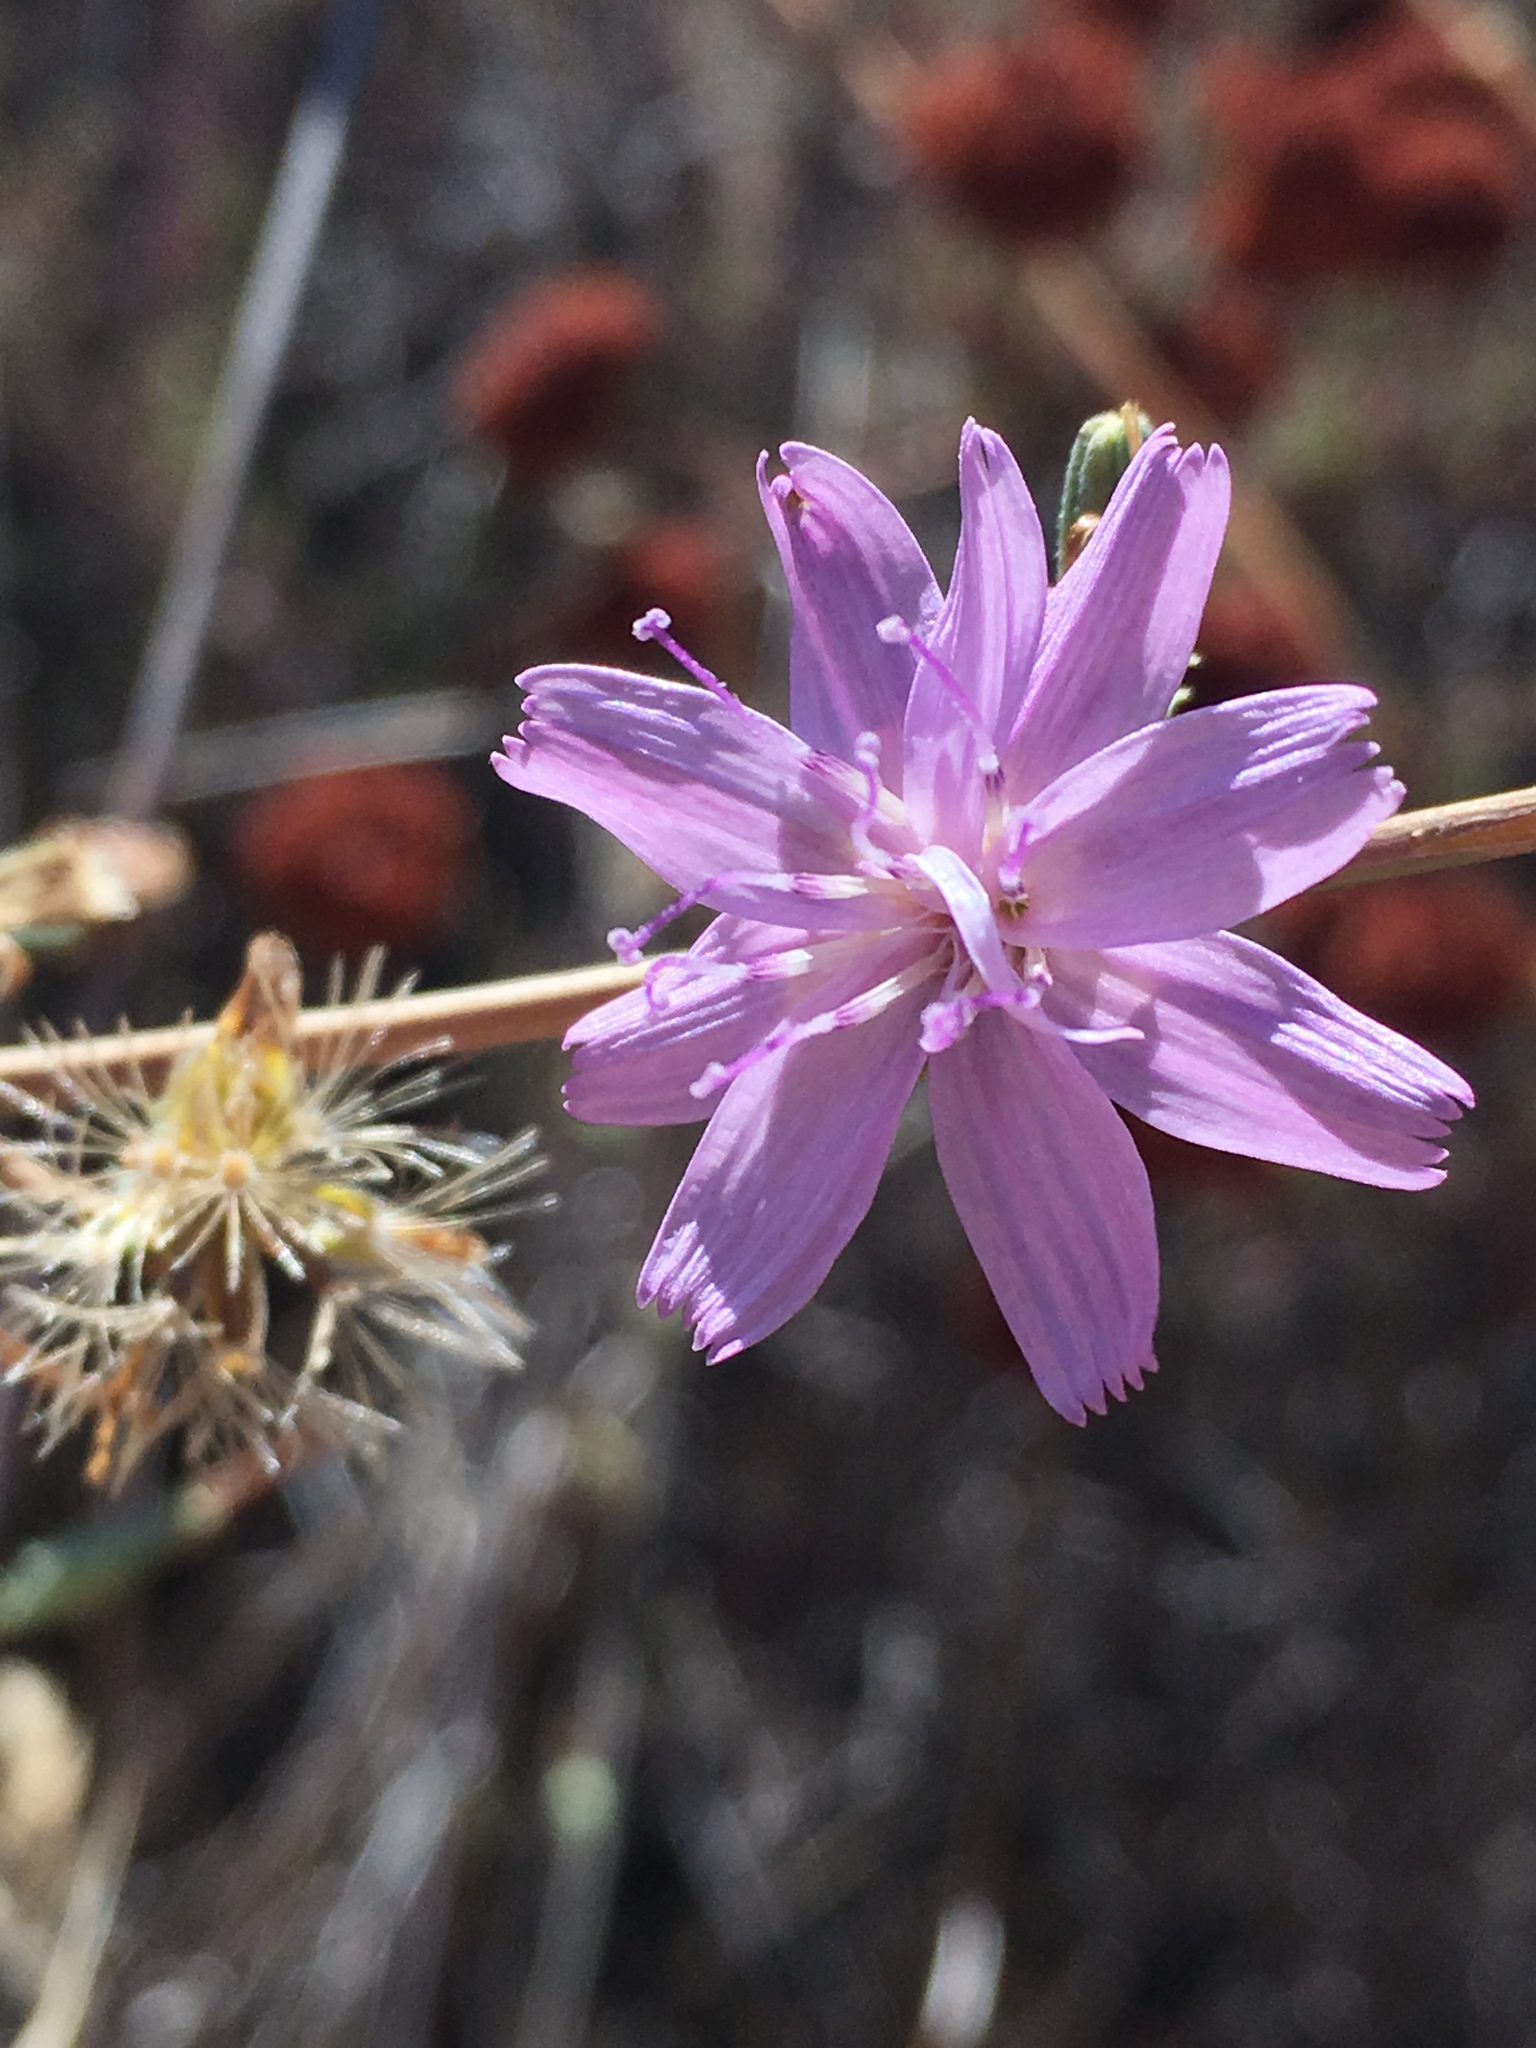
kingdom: Plantae
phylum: Tracheophyta
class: Magnoliopsida
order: Asterales
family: Asteraceae
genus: Stephanomeria
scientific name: Stephanomeria virgata
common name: Virgate wirelettuce
